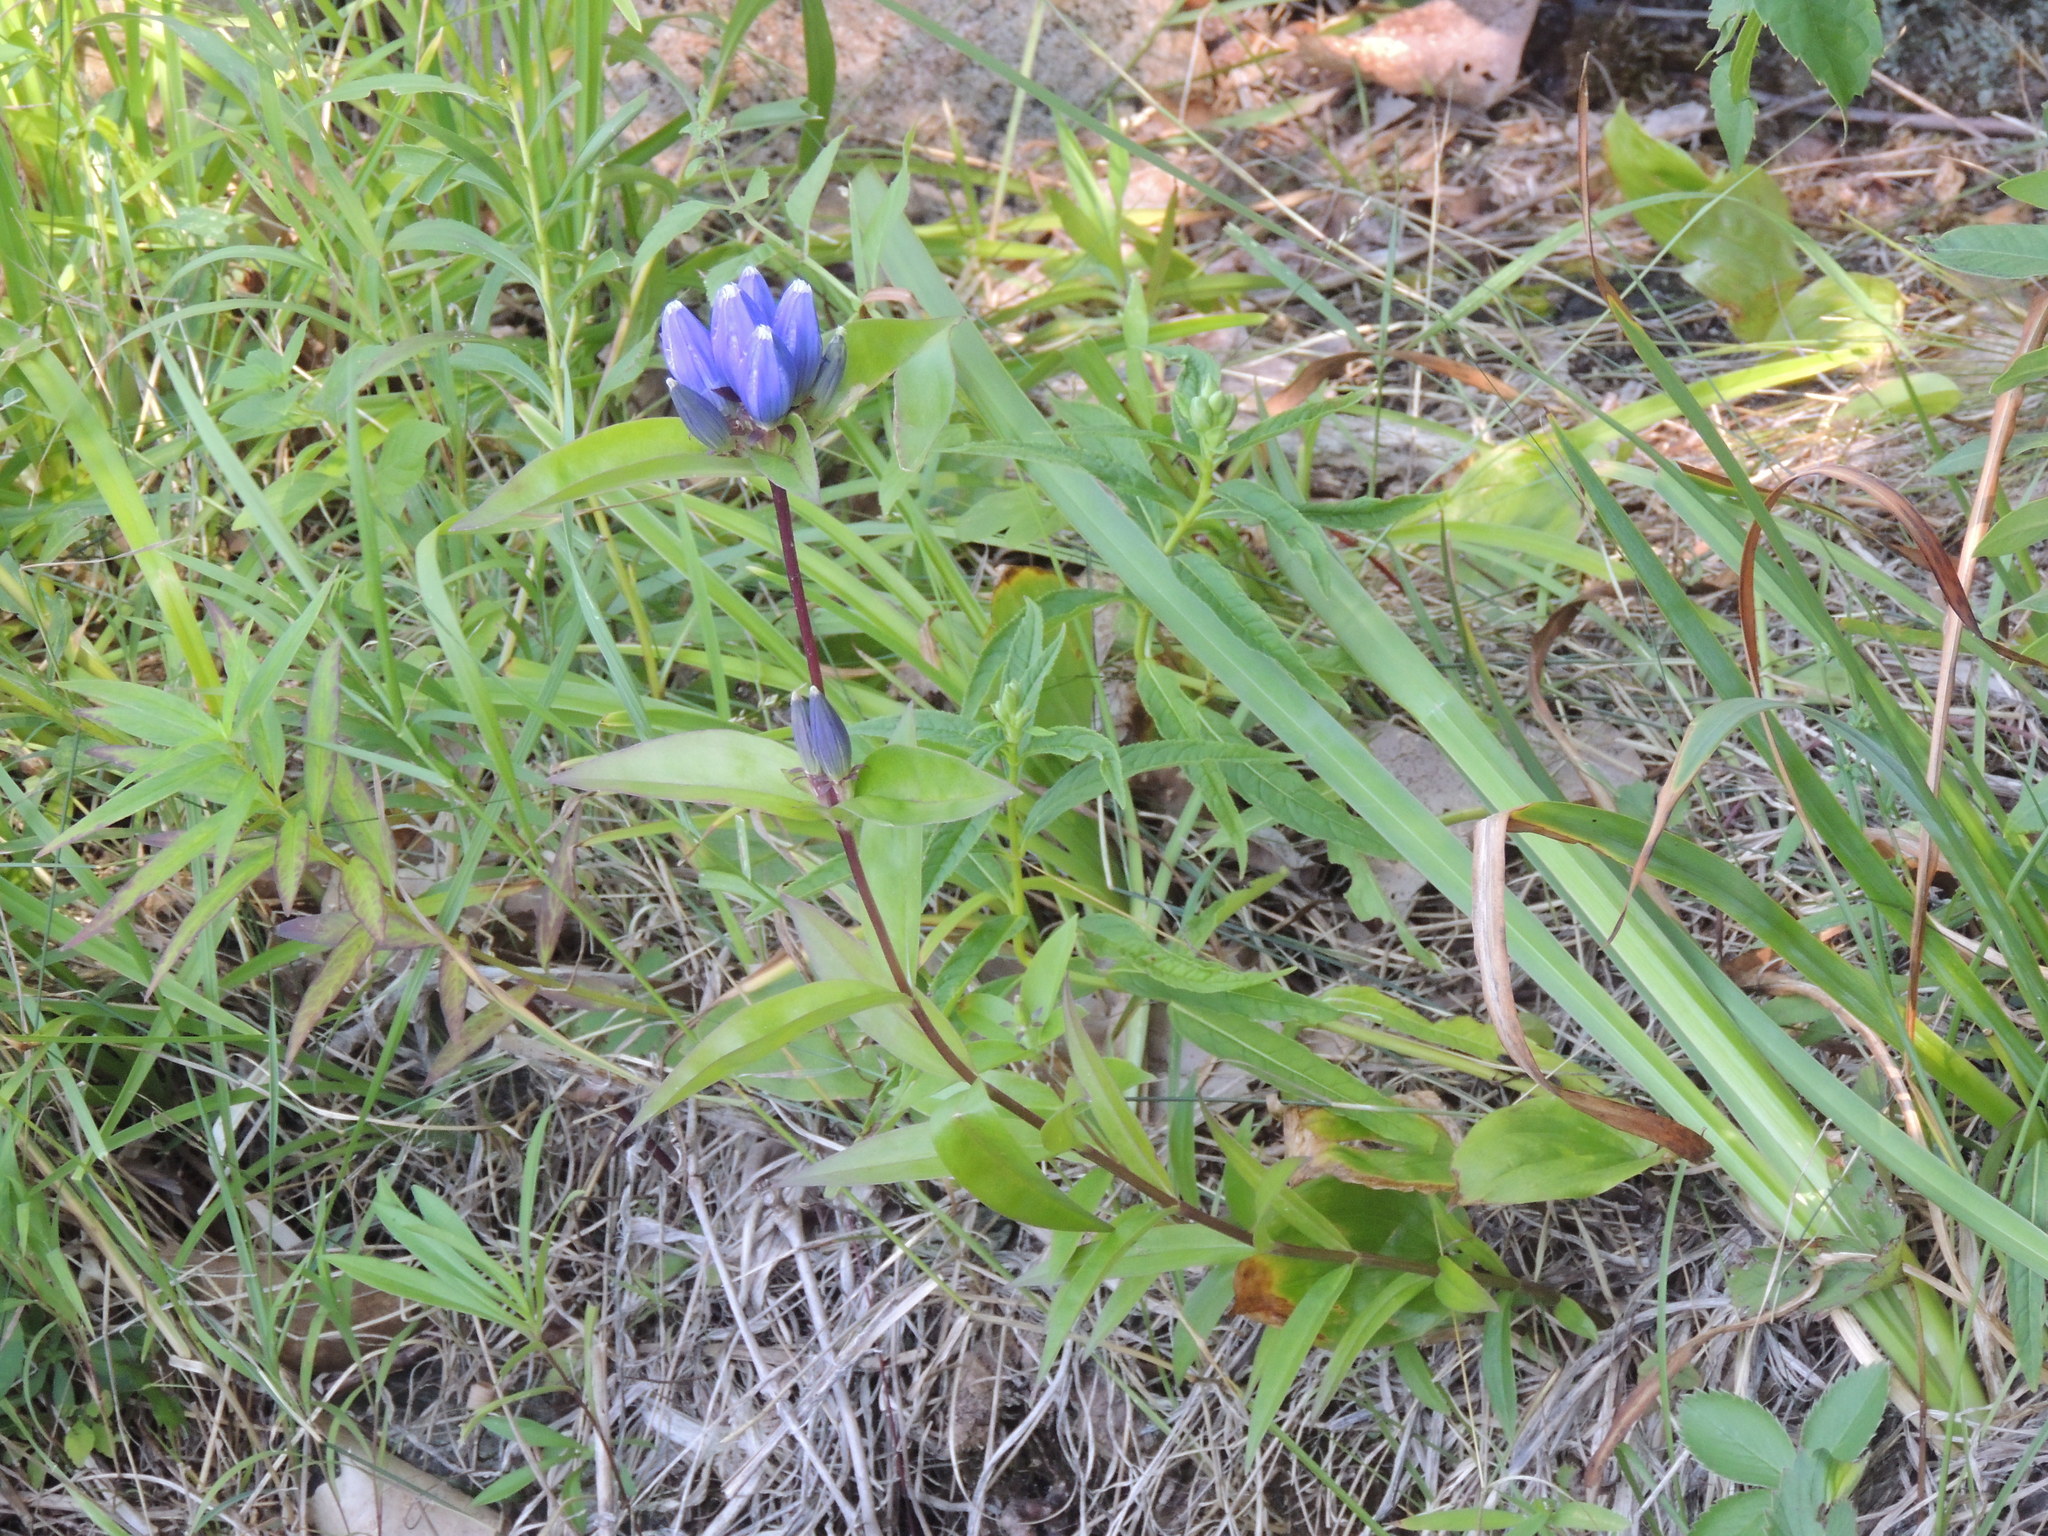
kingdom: Plantae
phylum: Tracheophyta
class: Magnoliopsida
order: Gentianales
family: Gentianaceae
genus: Gentiana
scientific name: Gentiana andrewsii
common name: Bottle gentian
